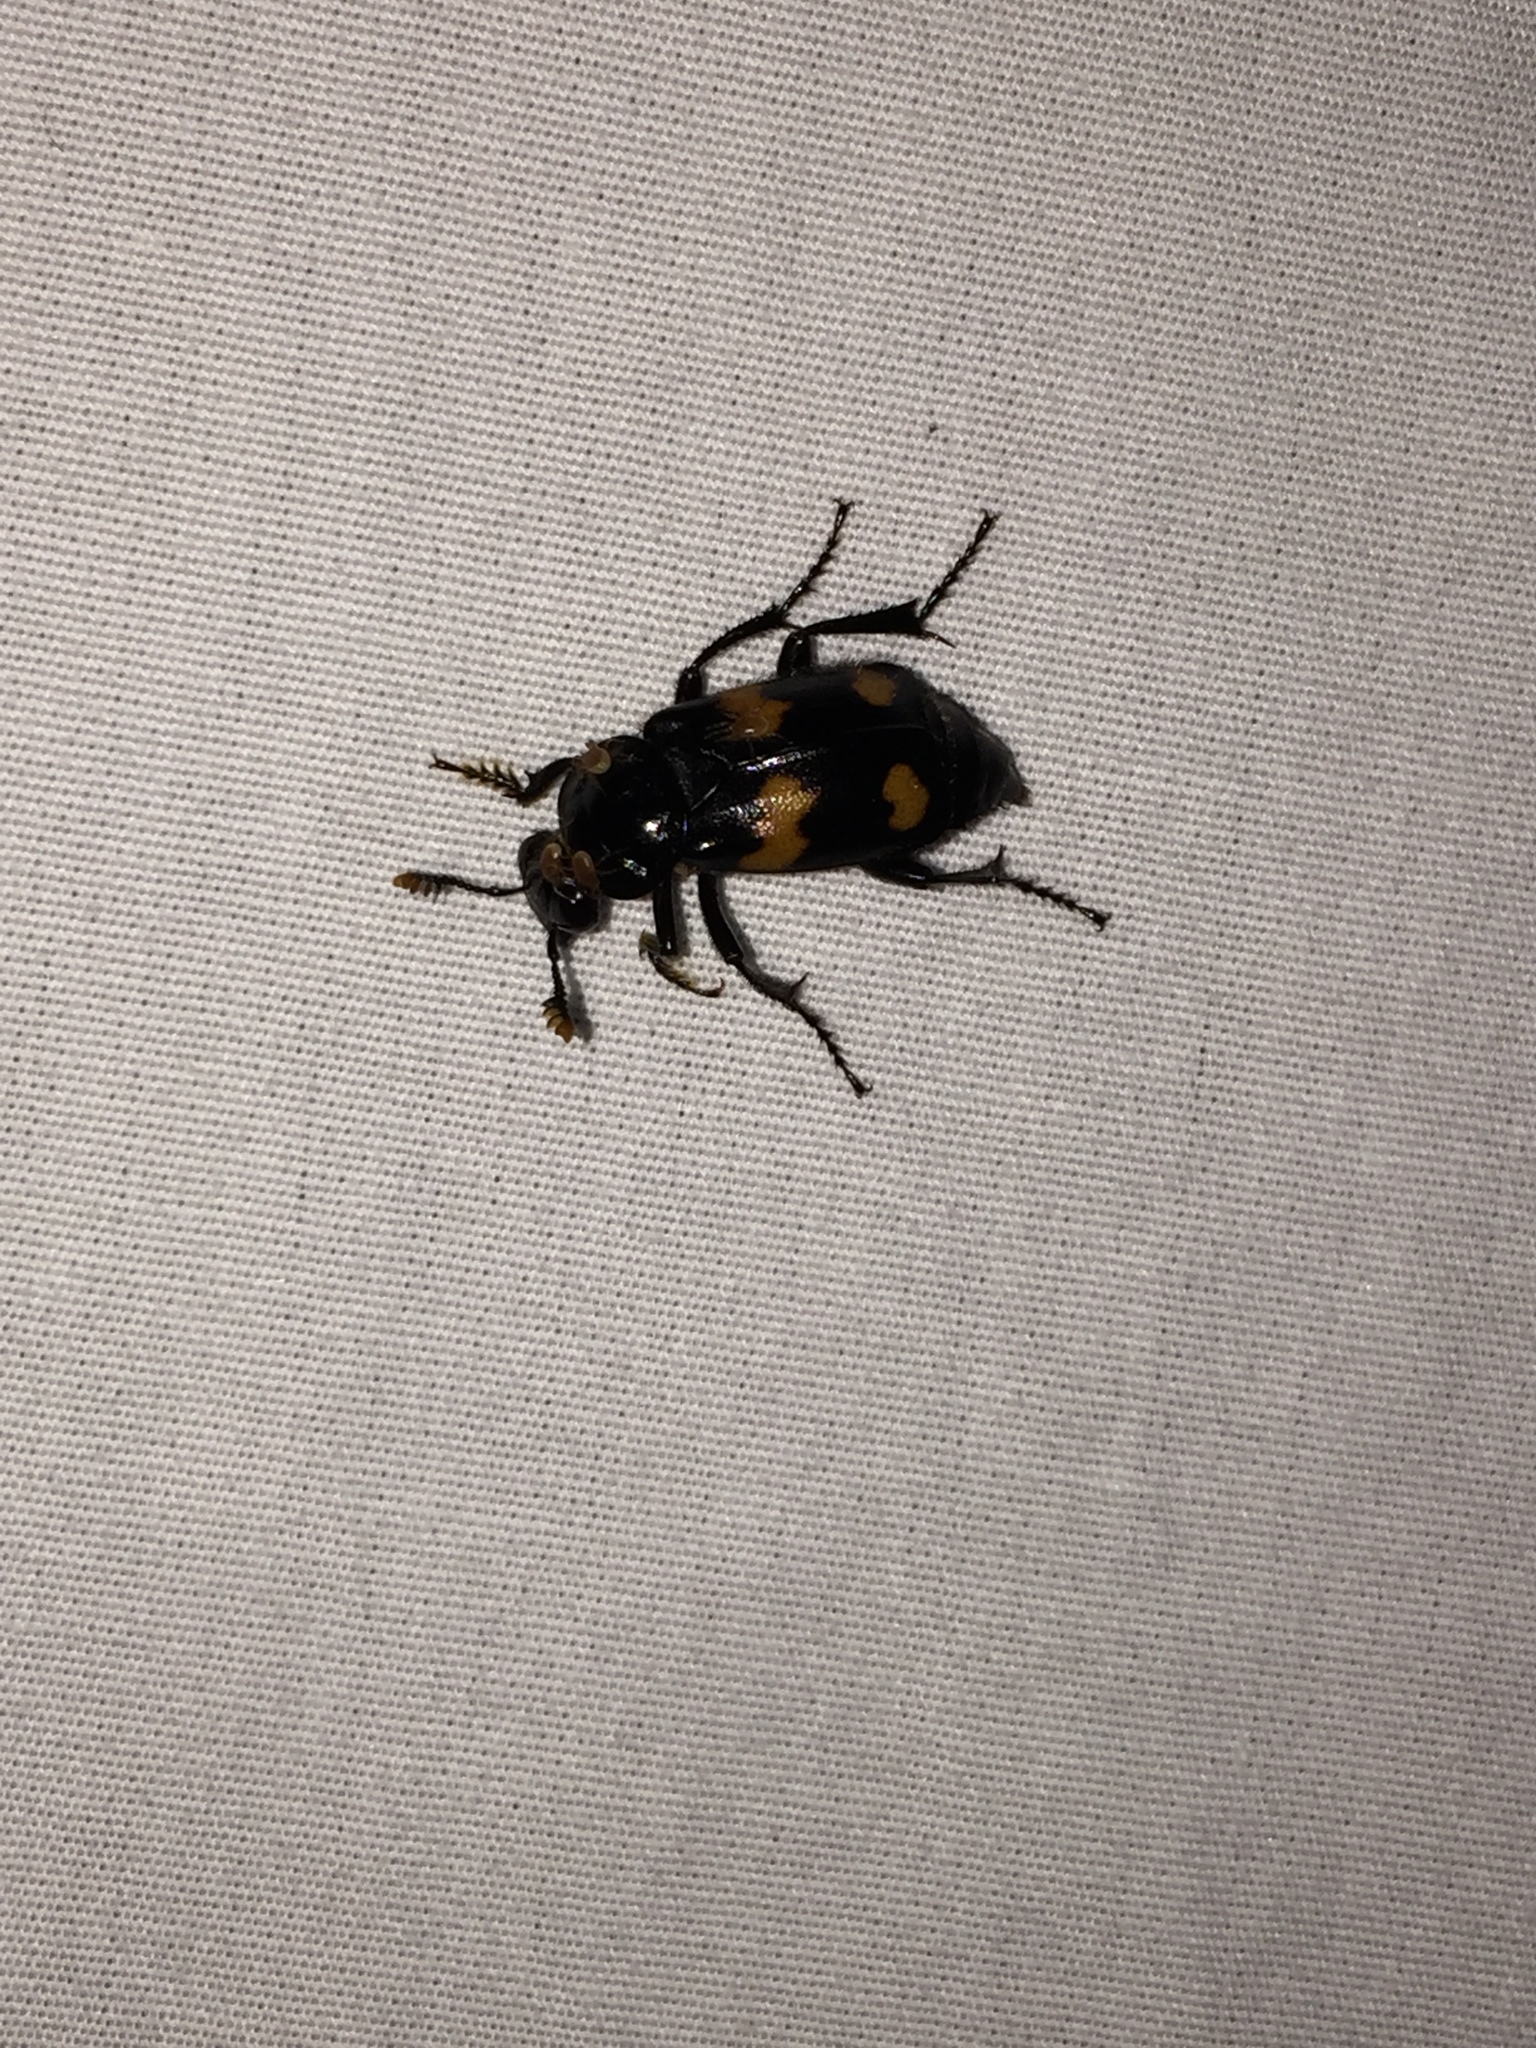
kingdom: Animalia
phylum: Arthropoda
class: Insecta
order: Coleoptera
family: Staphylinidae
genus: Nicrophorus
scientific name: Nicrophorus orbicollis
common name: Roundneck sexton beetle
